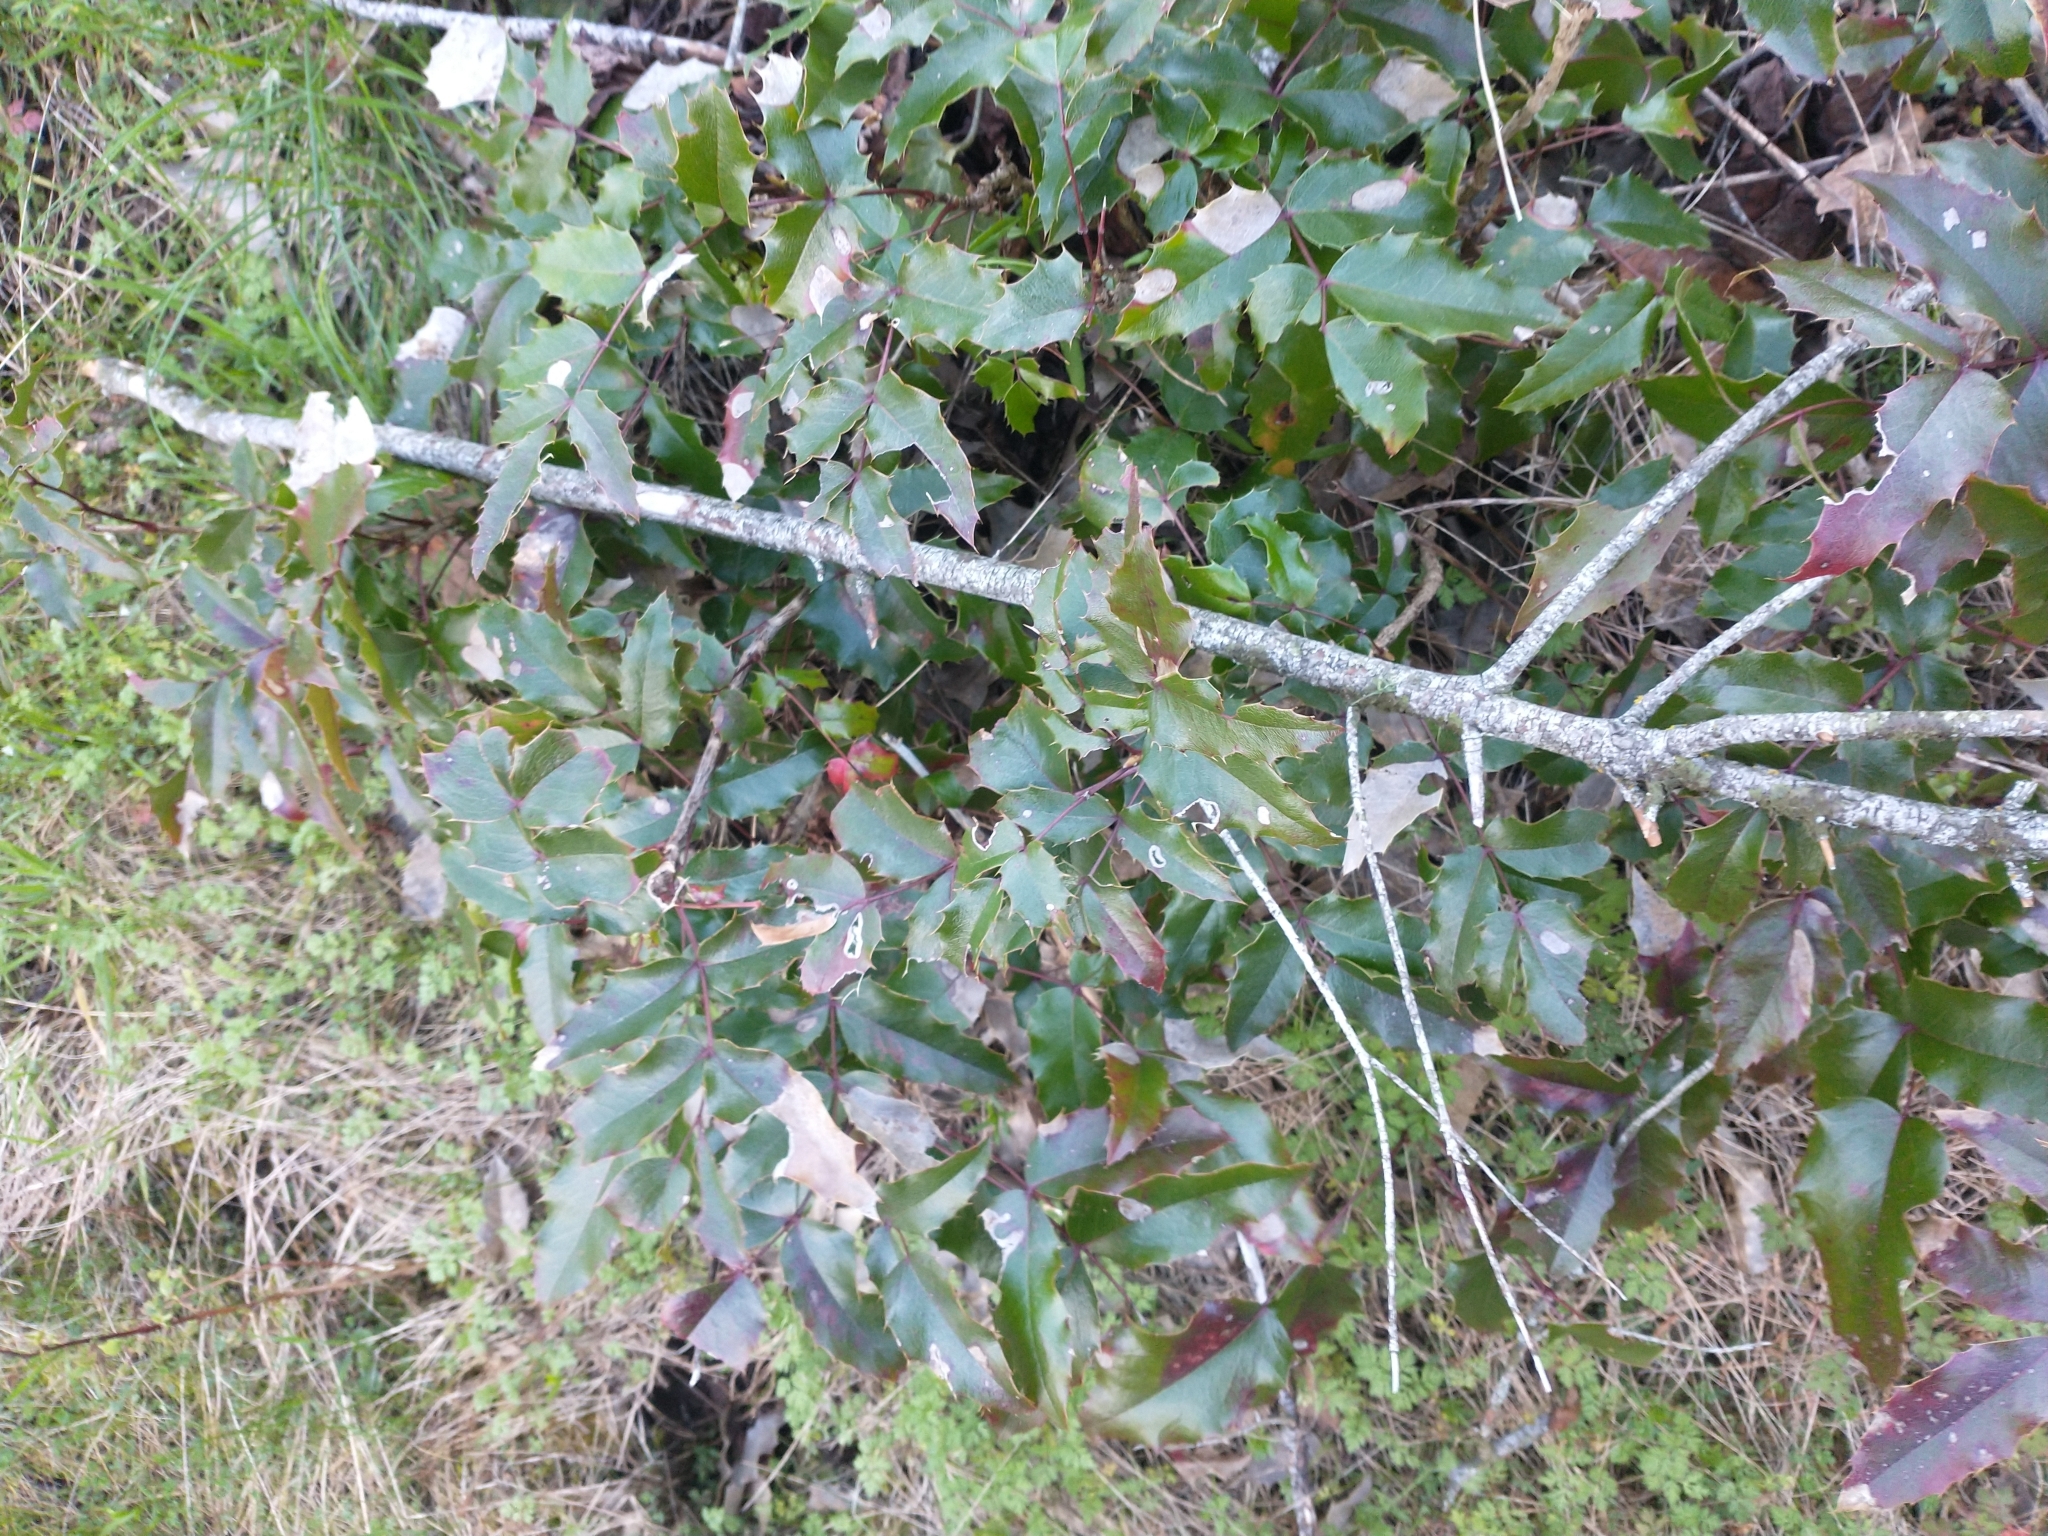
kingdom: Plantae
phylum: Tracheophyta
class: Magnoliopsida
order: Ranunculales
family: Berberidaceae
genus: Mahonia
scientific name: Mahonia aquifolium
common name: Oregon-grape
